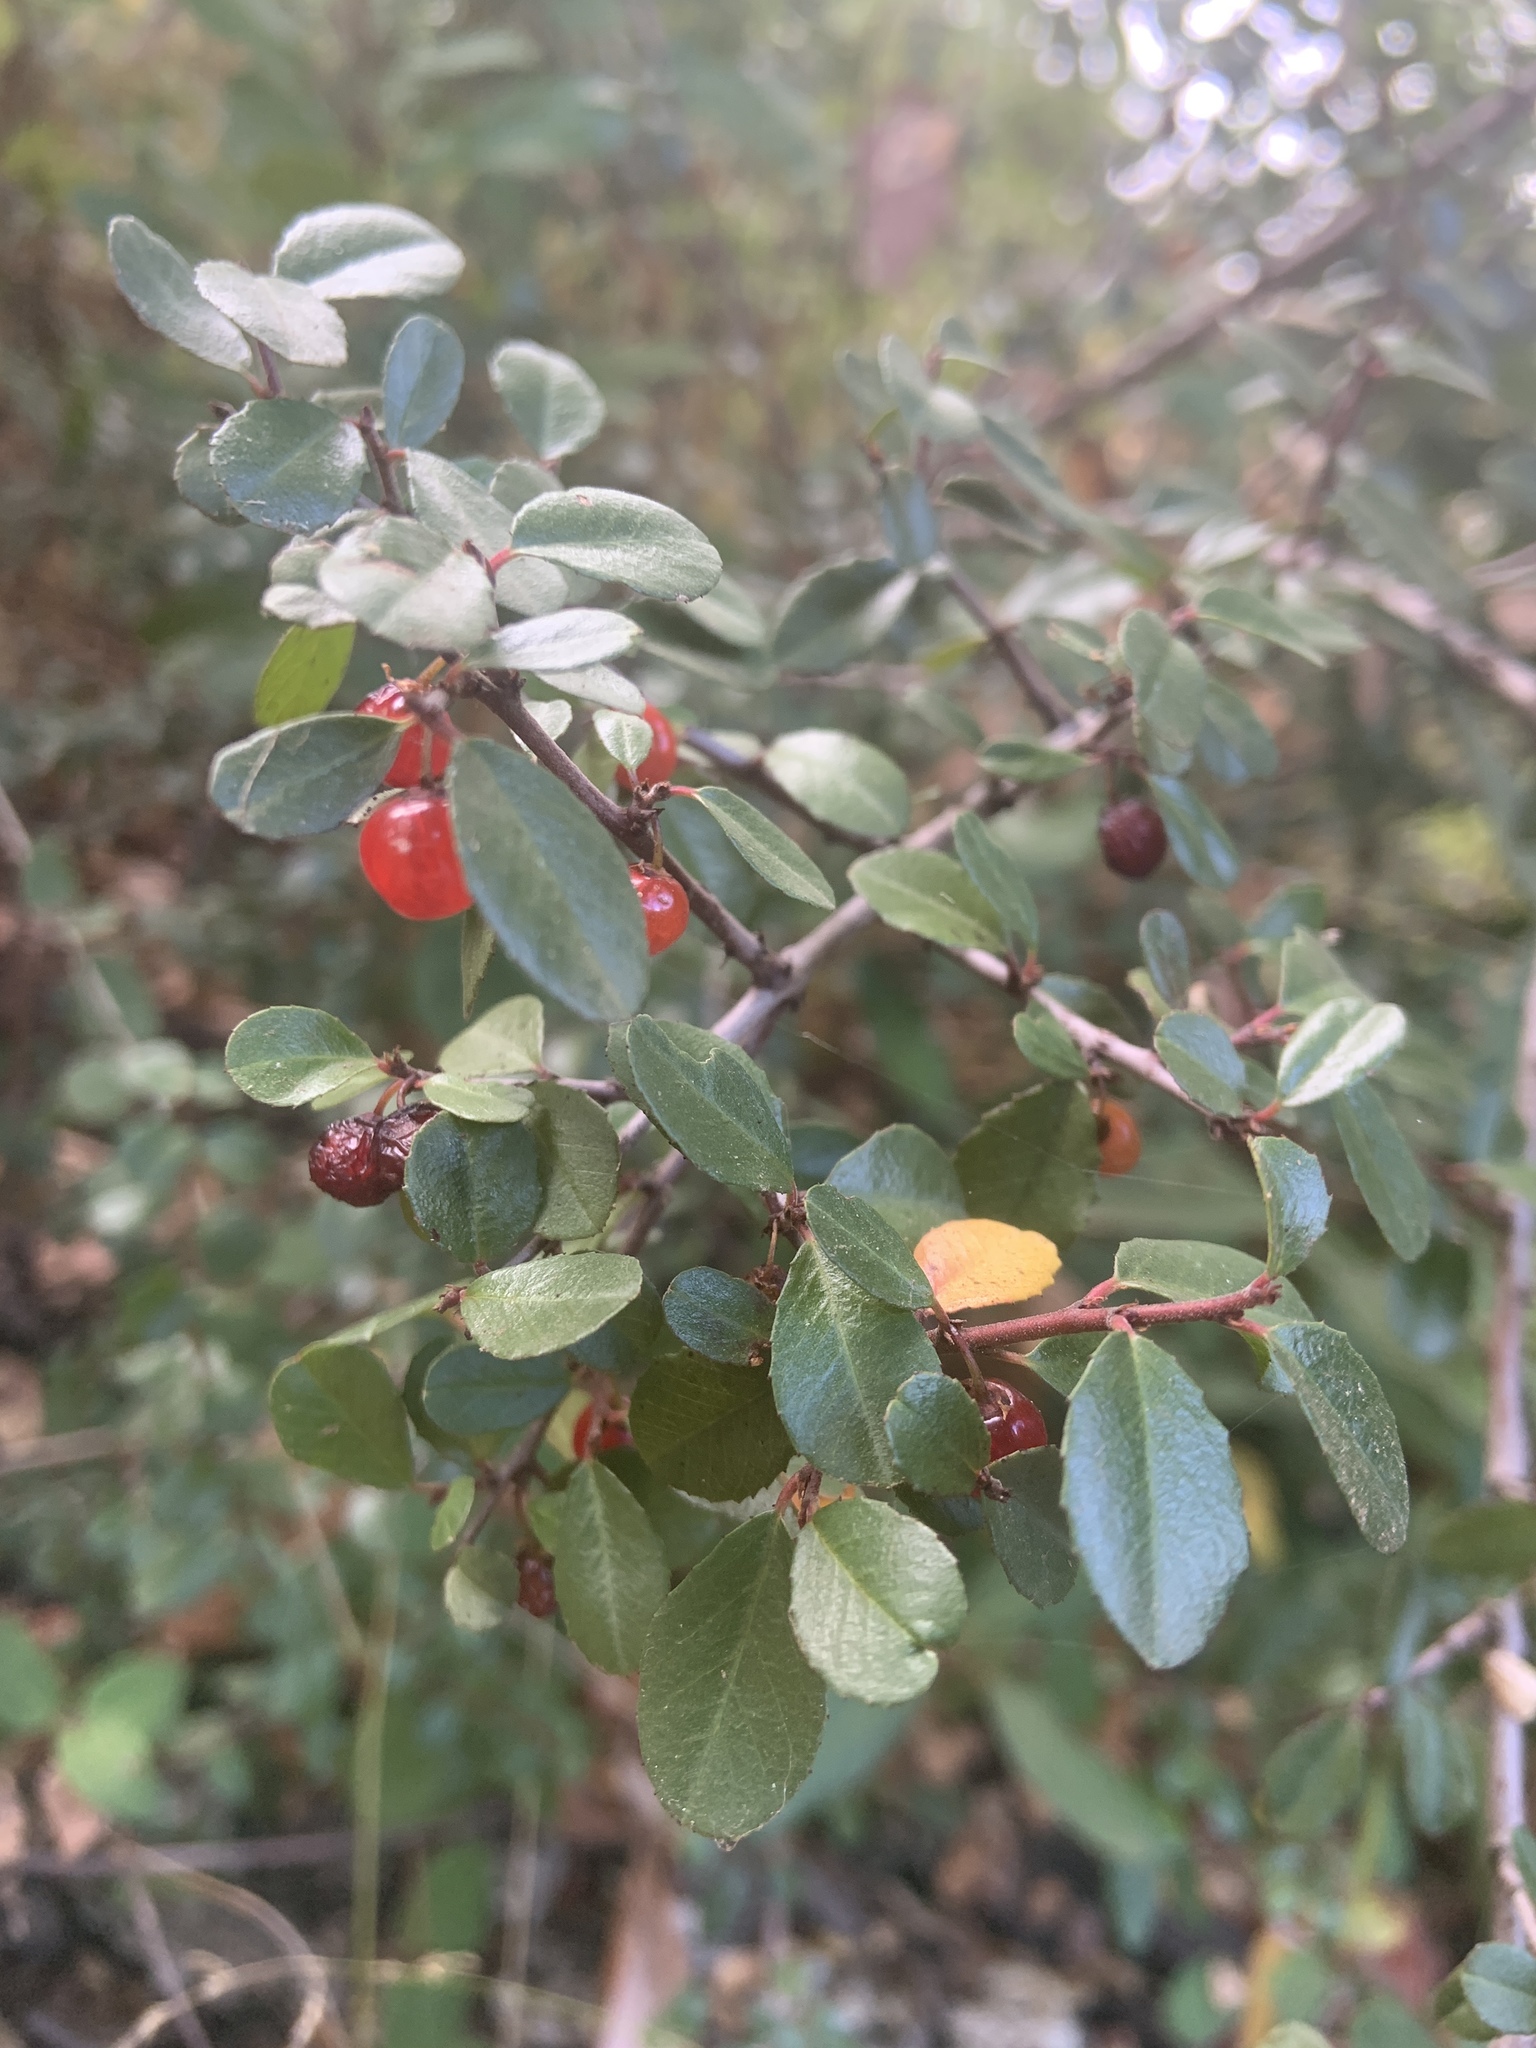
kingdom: Plantae
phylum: Tracheophyta
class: Magnoliopsida
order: Rosales
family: Rhamnaceae
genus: Endotropis
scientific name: Endotropis crocea
